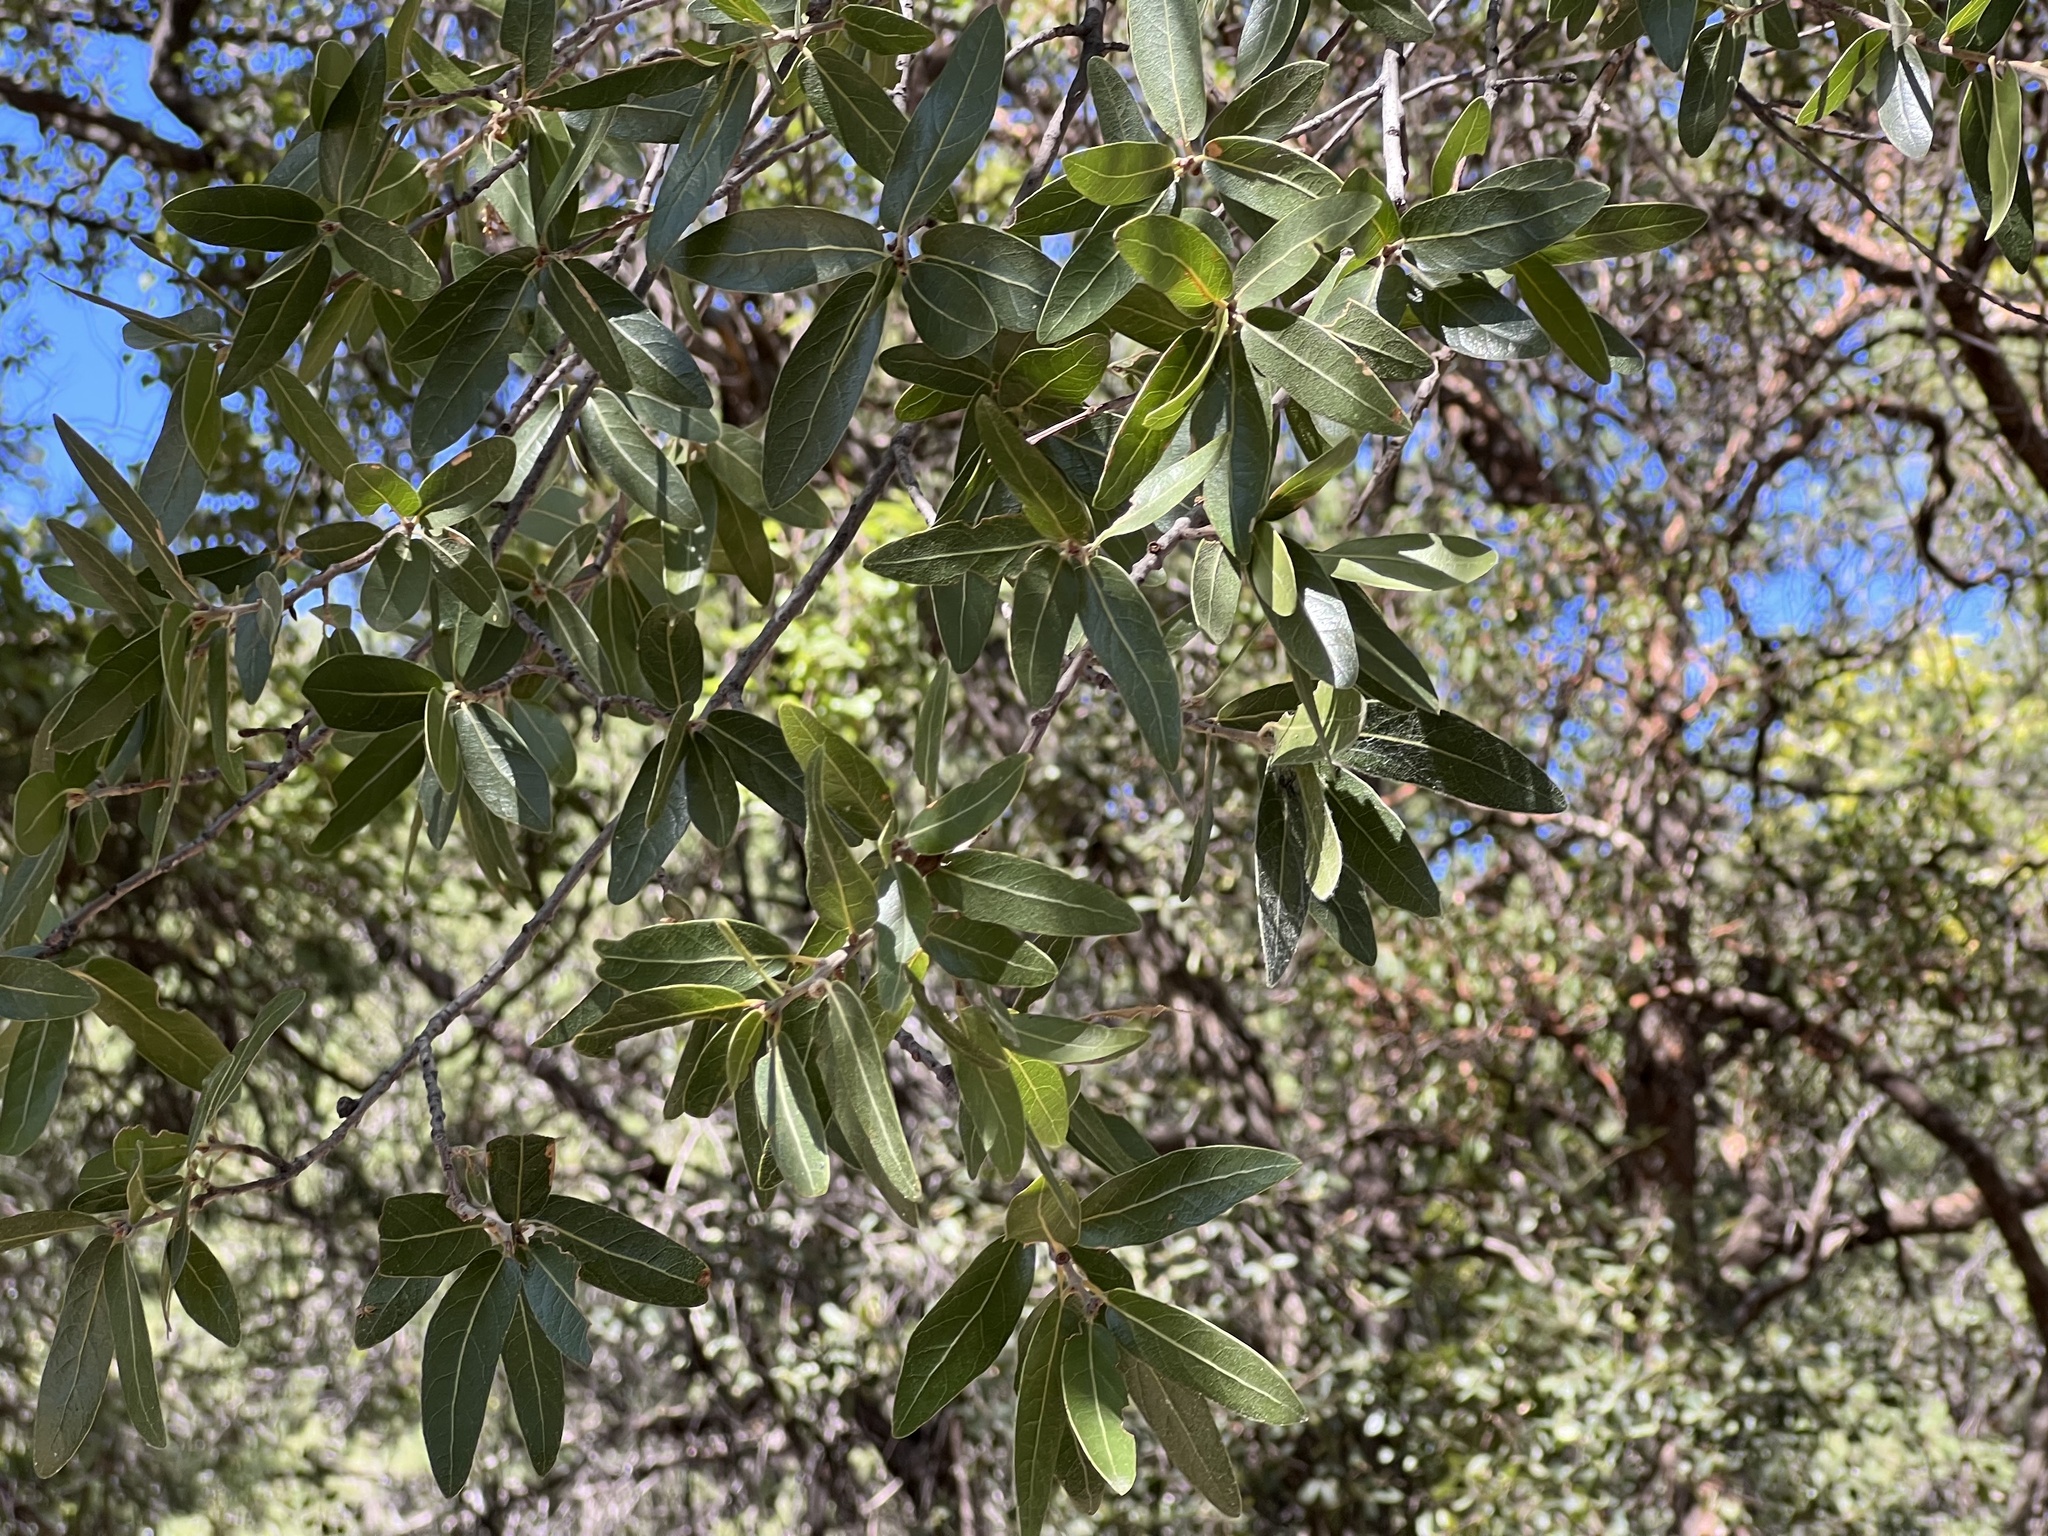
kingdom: Plantae
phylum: Tracheophyta
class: Magnoliopsida
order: Fagales
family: Fagaceae
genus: Quercus
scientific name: Quercus hypoleucoides
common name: Silverleaf oak
